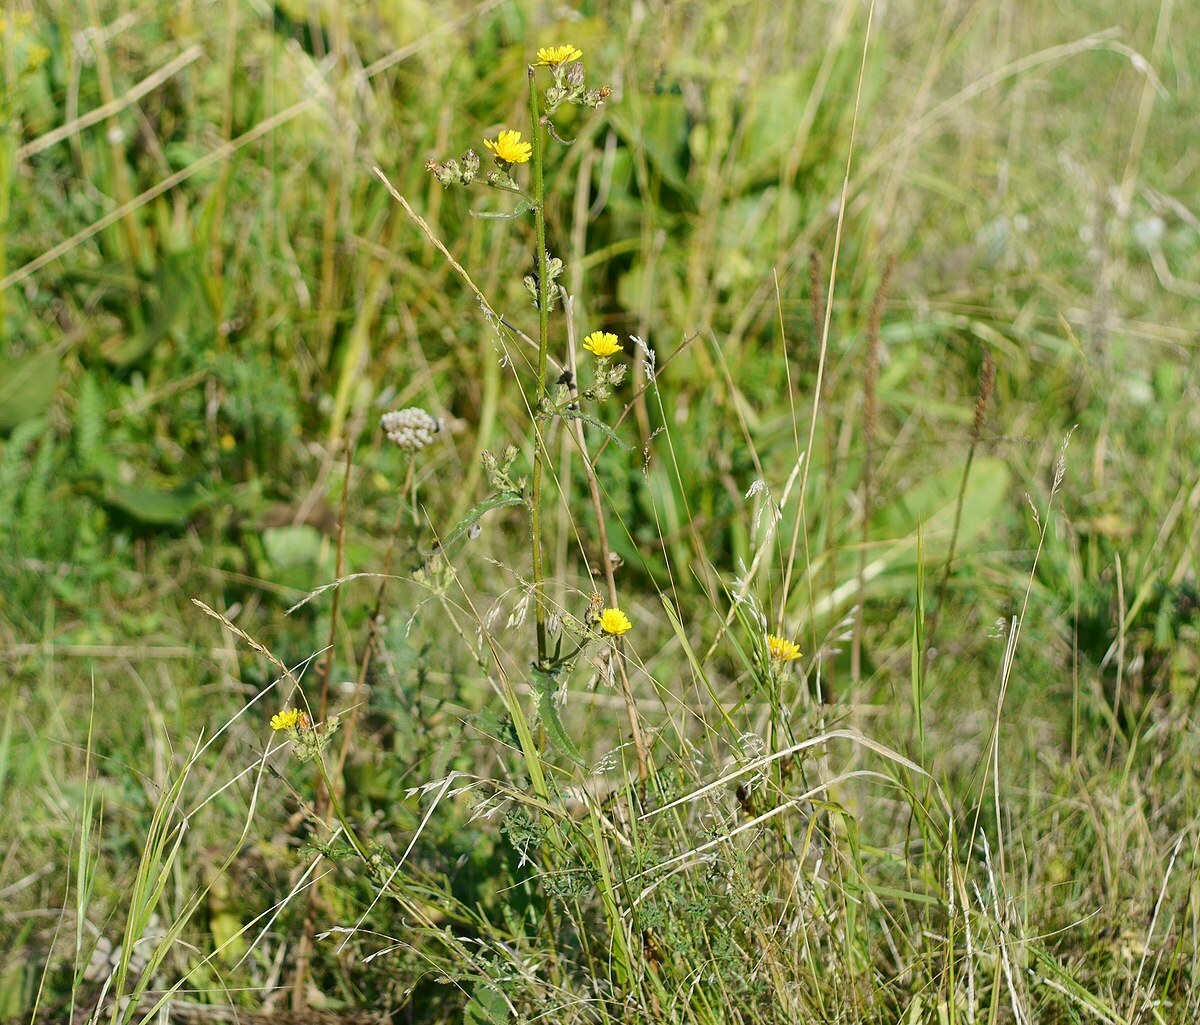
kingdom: Plantae
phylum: Tracheophyta
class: Magnoliopsida
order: Asterales
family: Asteraceae
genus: Picris
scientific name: Picris hieracioides
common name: Hawkweed oxtongue
